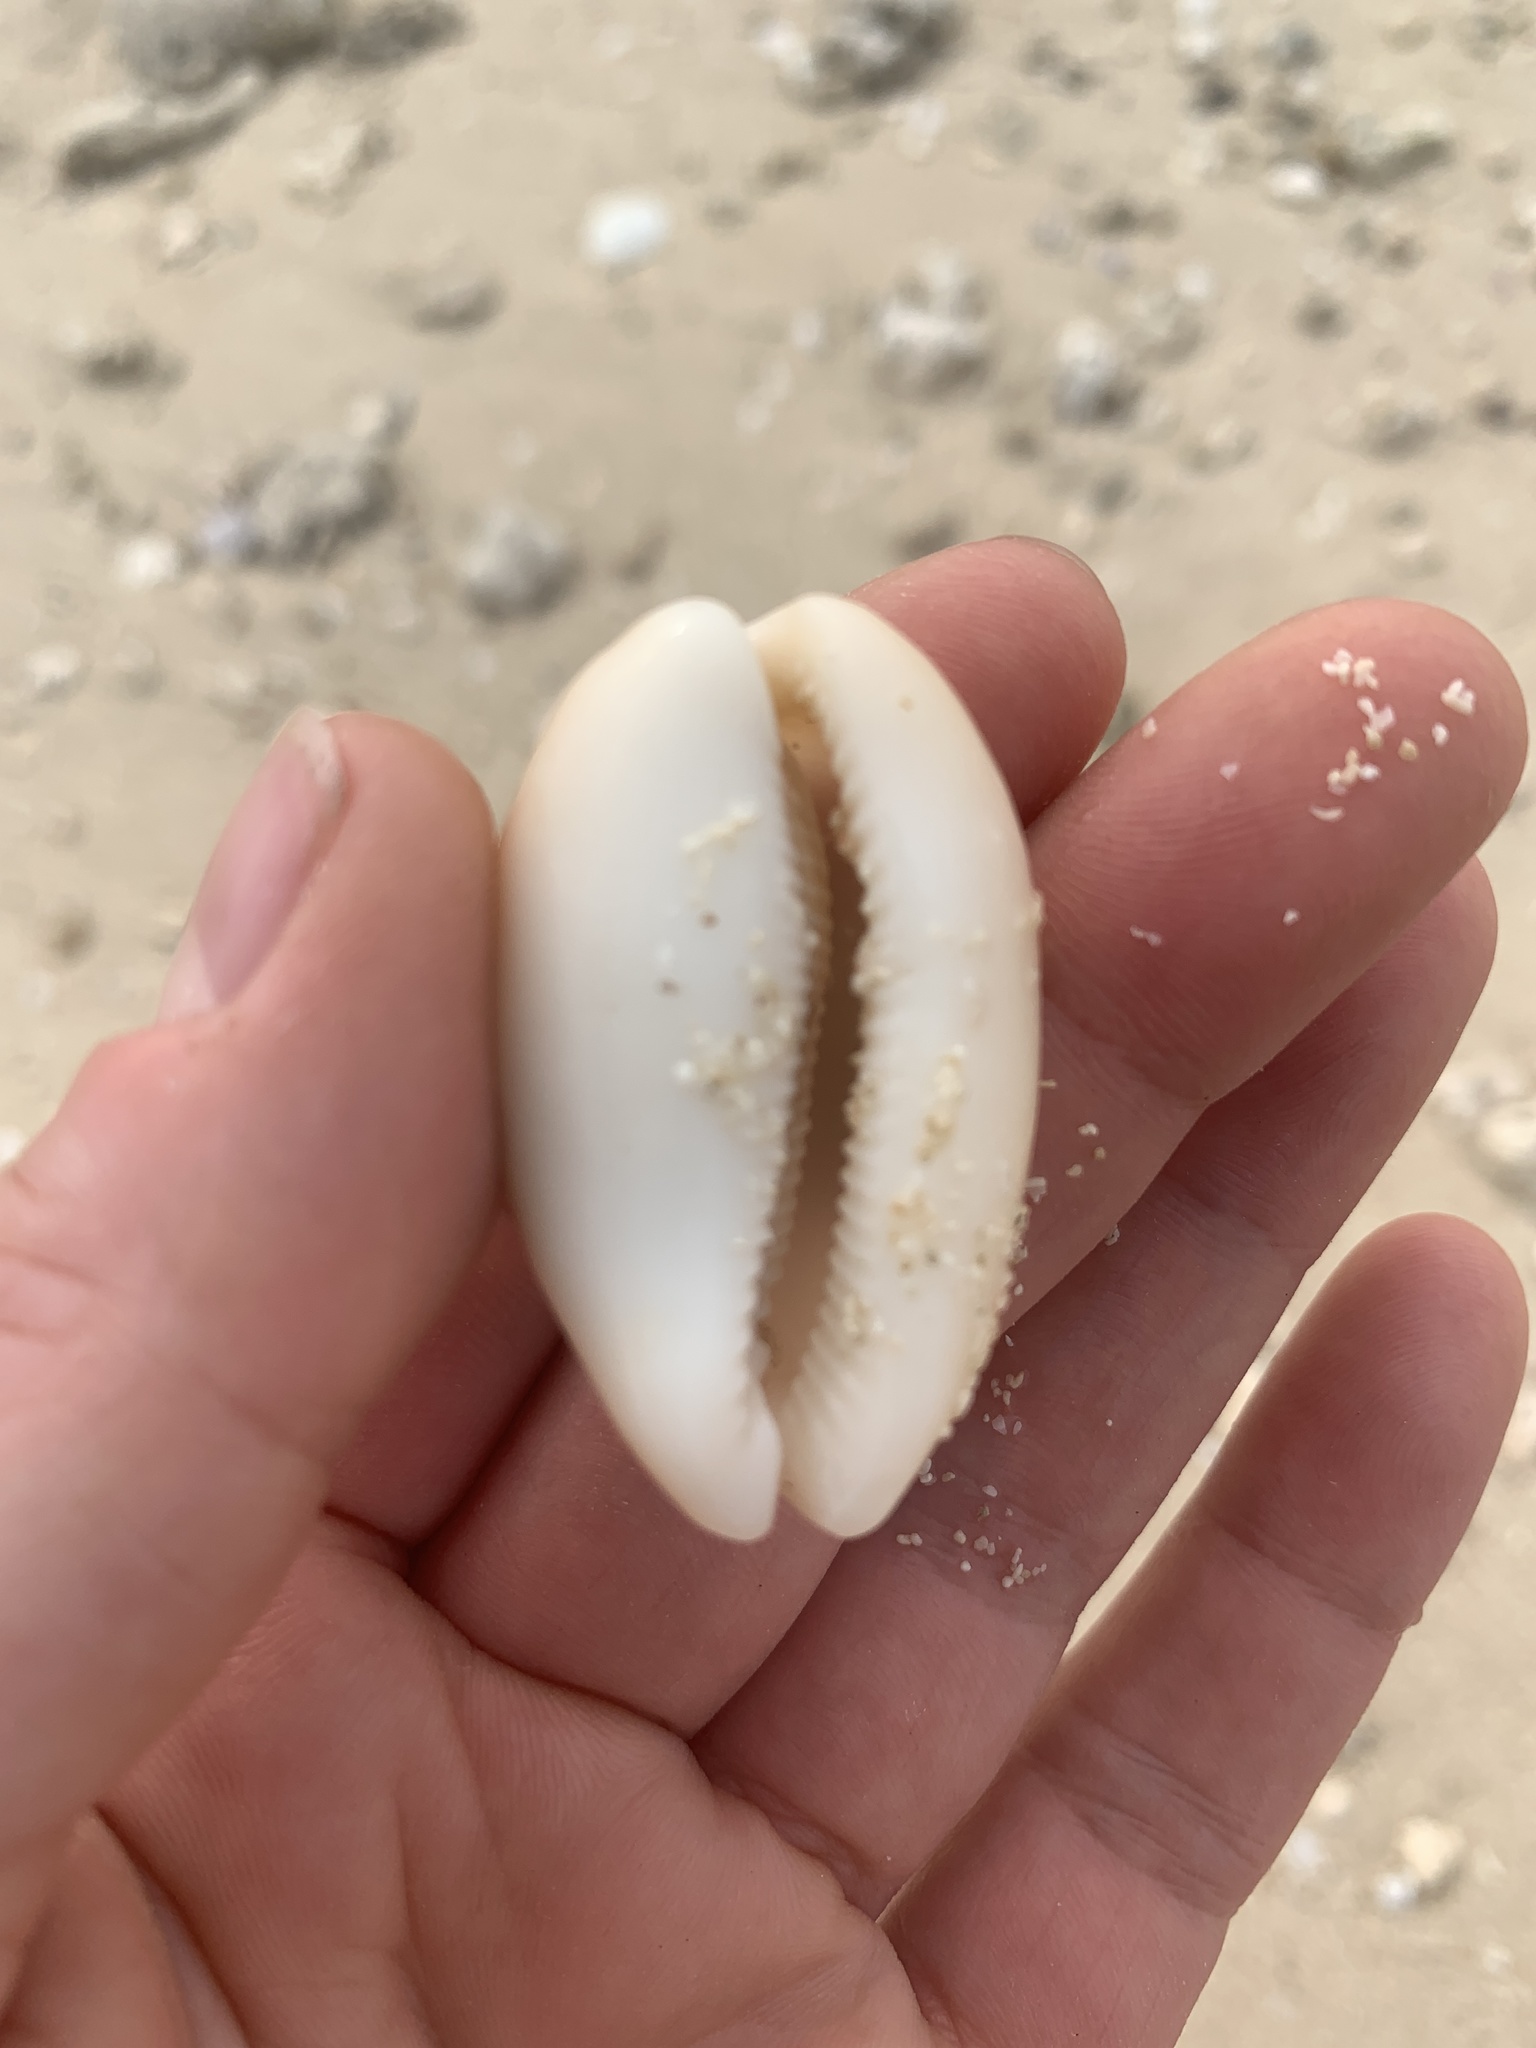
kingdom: Animalia
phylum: Mollusca
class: Gastropoda
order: Littorinimorpha
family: Cypraeidae
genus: Lyncina
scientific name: Lyncina carneola
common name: Purple-mouthed cowry
